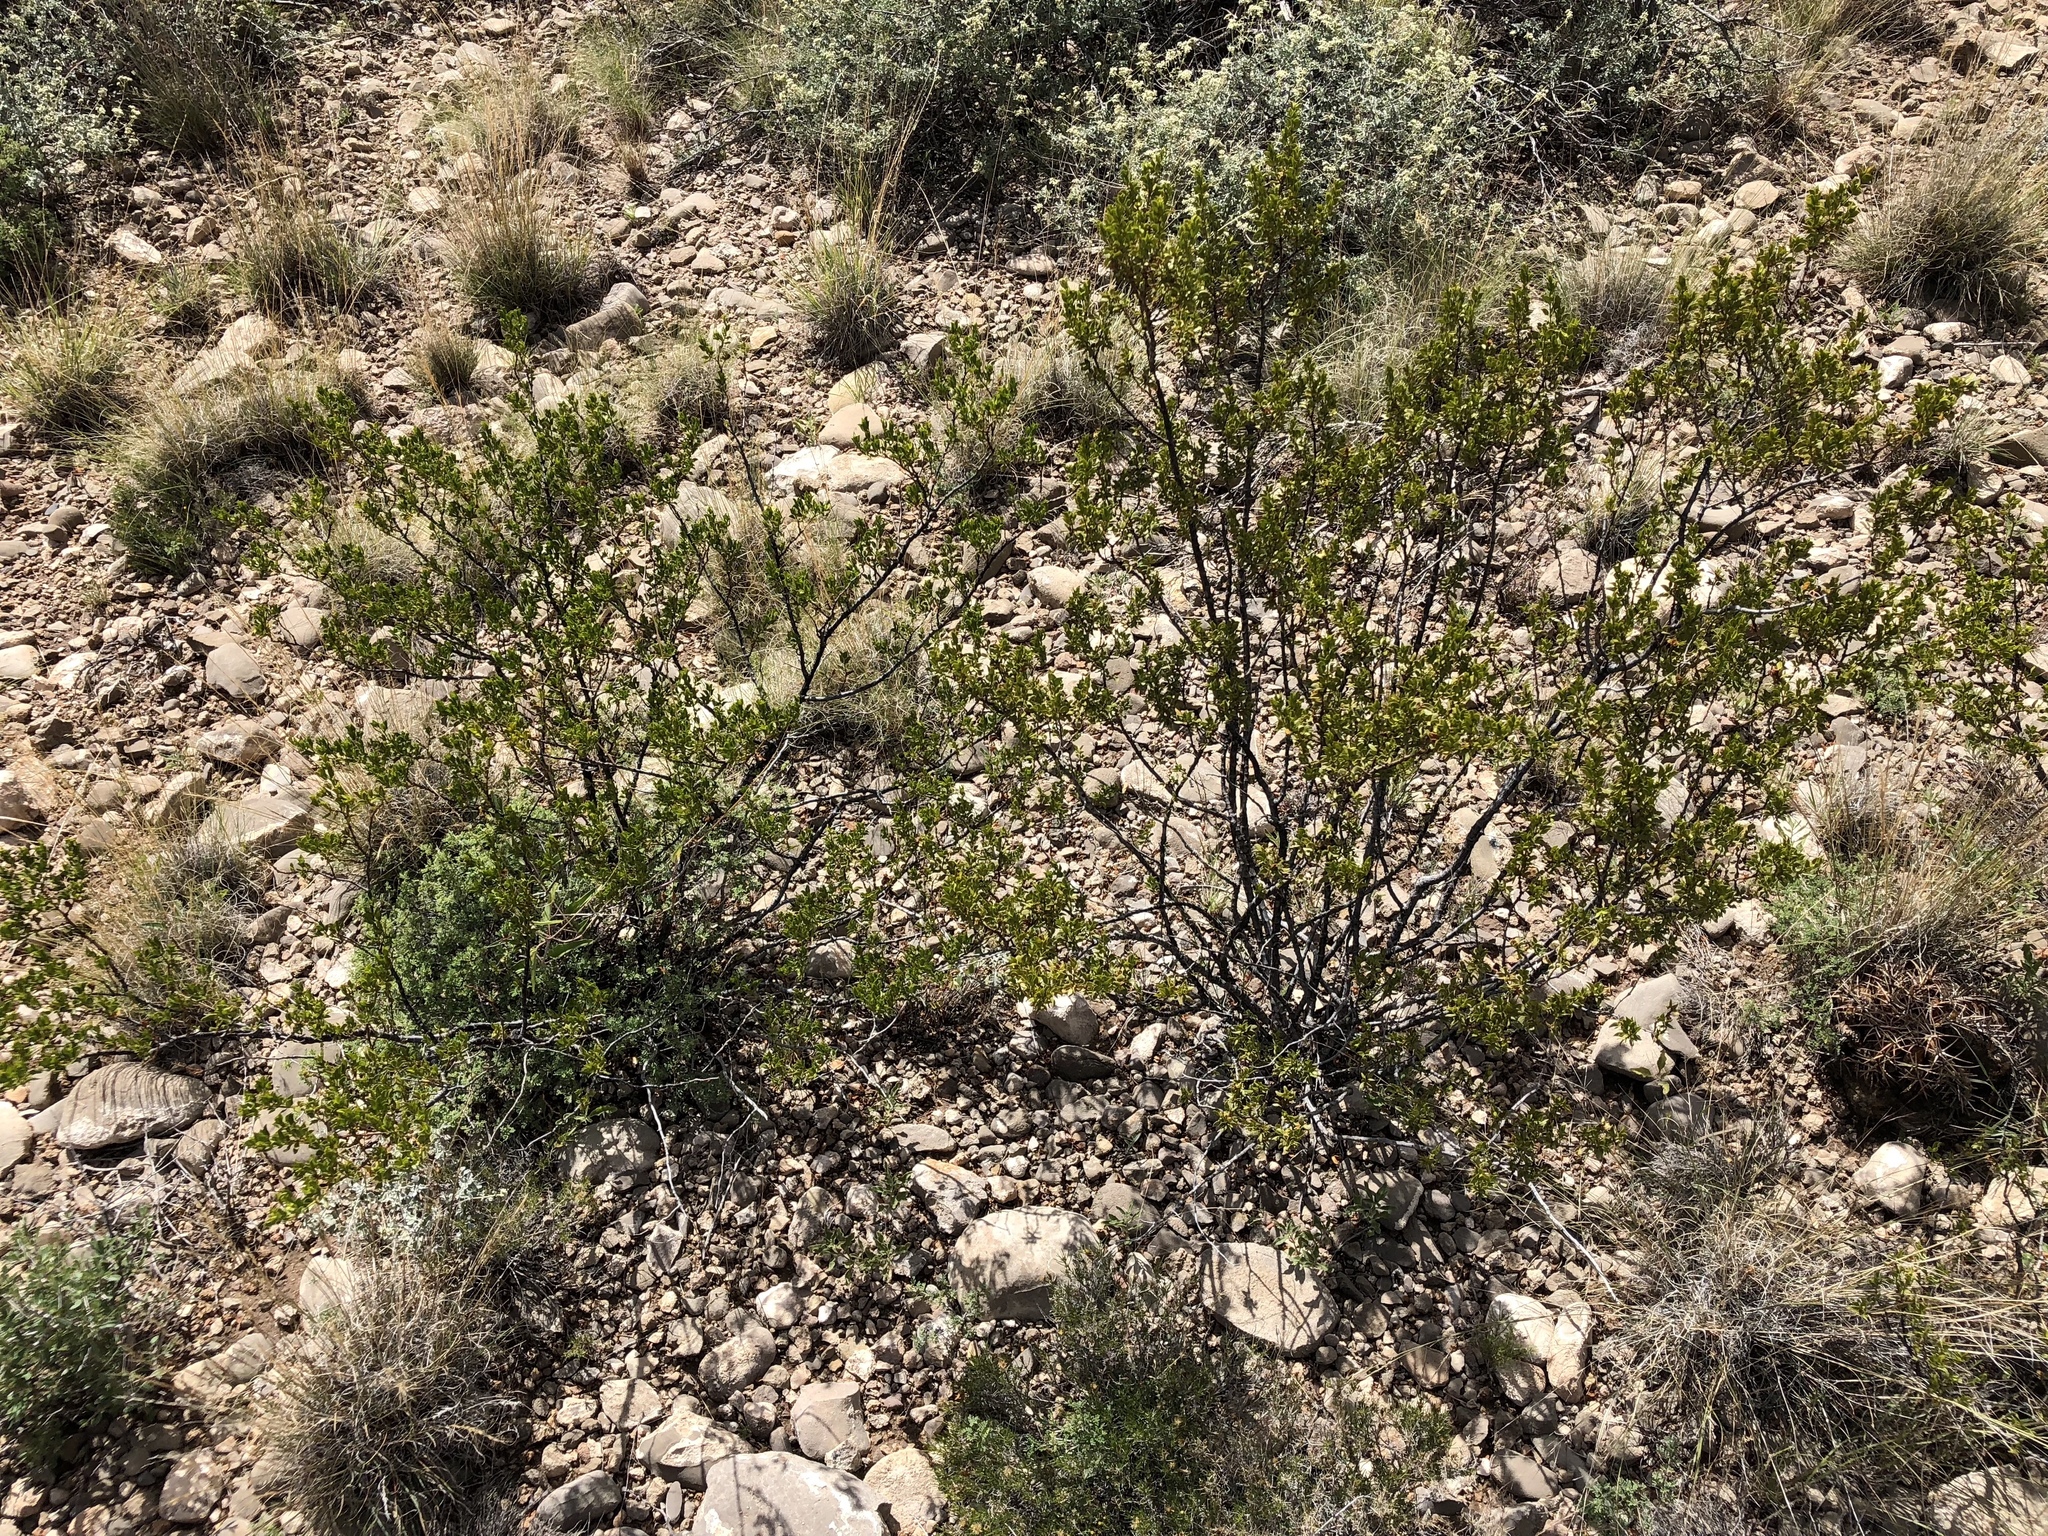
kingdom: Plantae
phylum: Tracheophyta
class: Magnoliopsida
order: Zygophyllales
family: Zygophyllaceae
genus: Larrea
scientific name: Larrea tridentata
